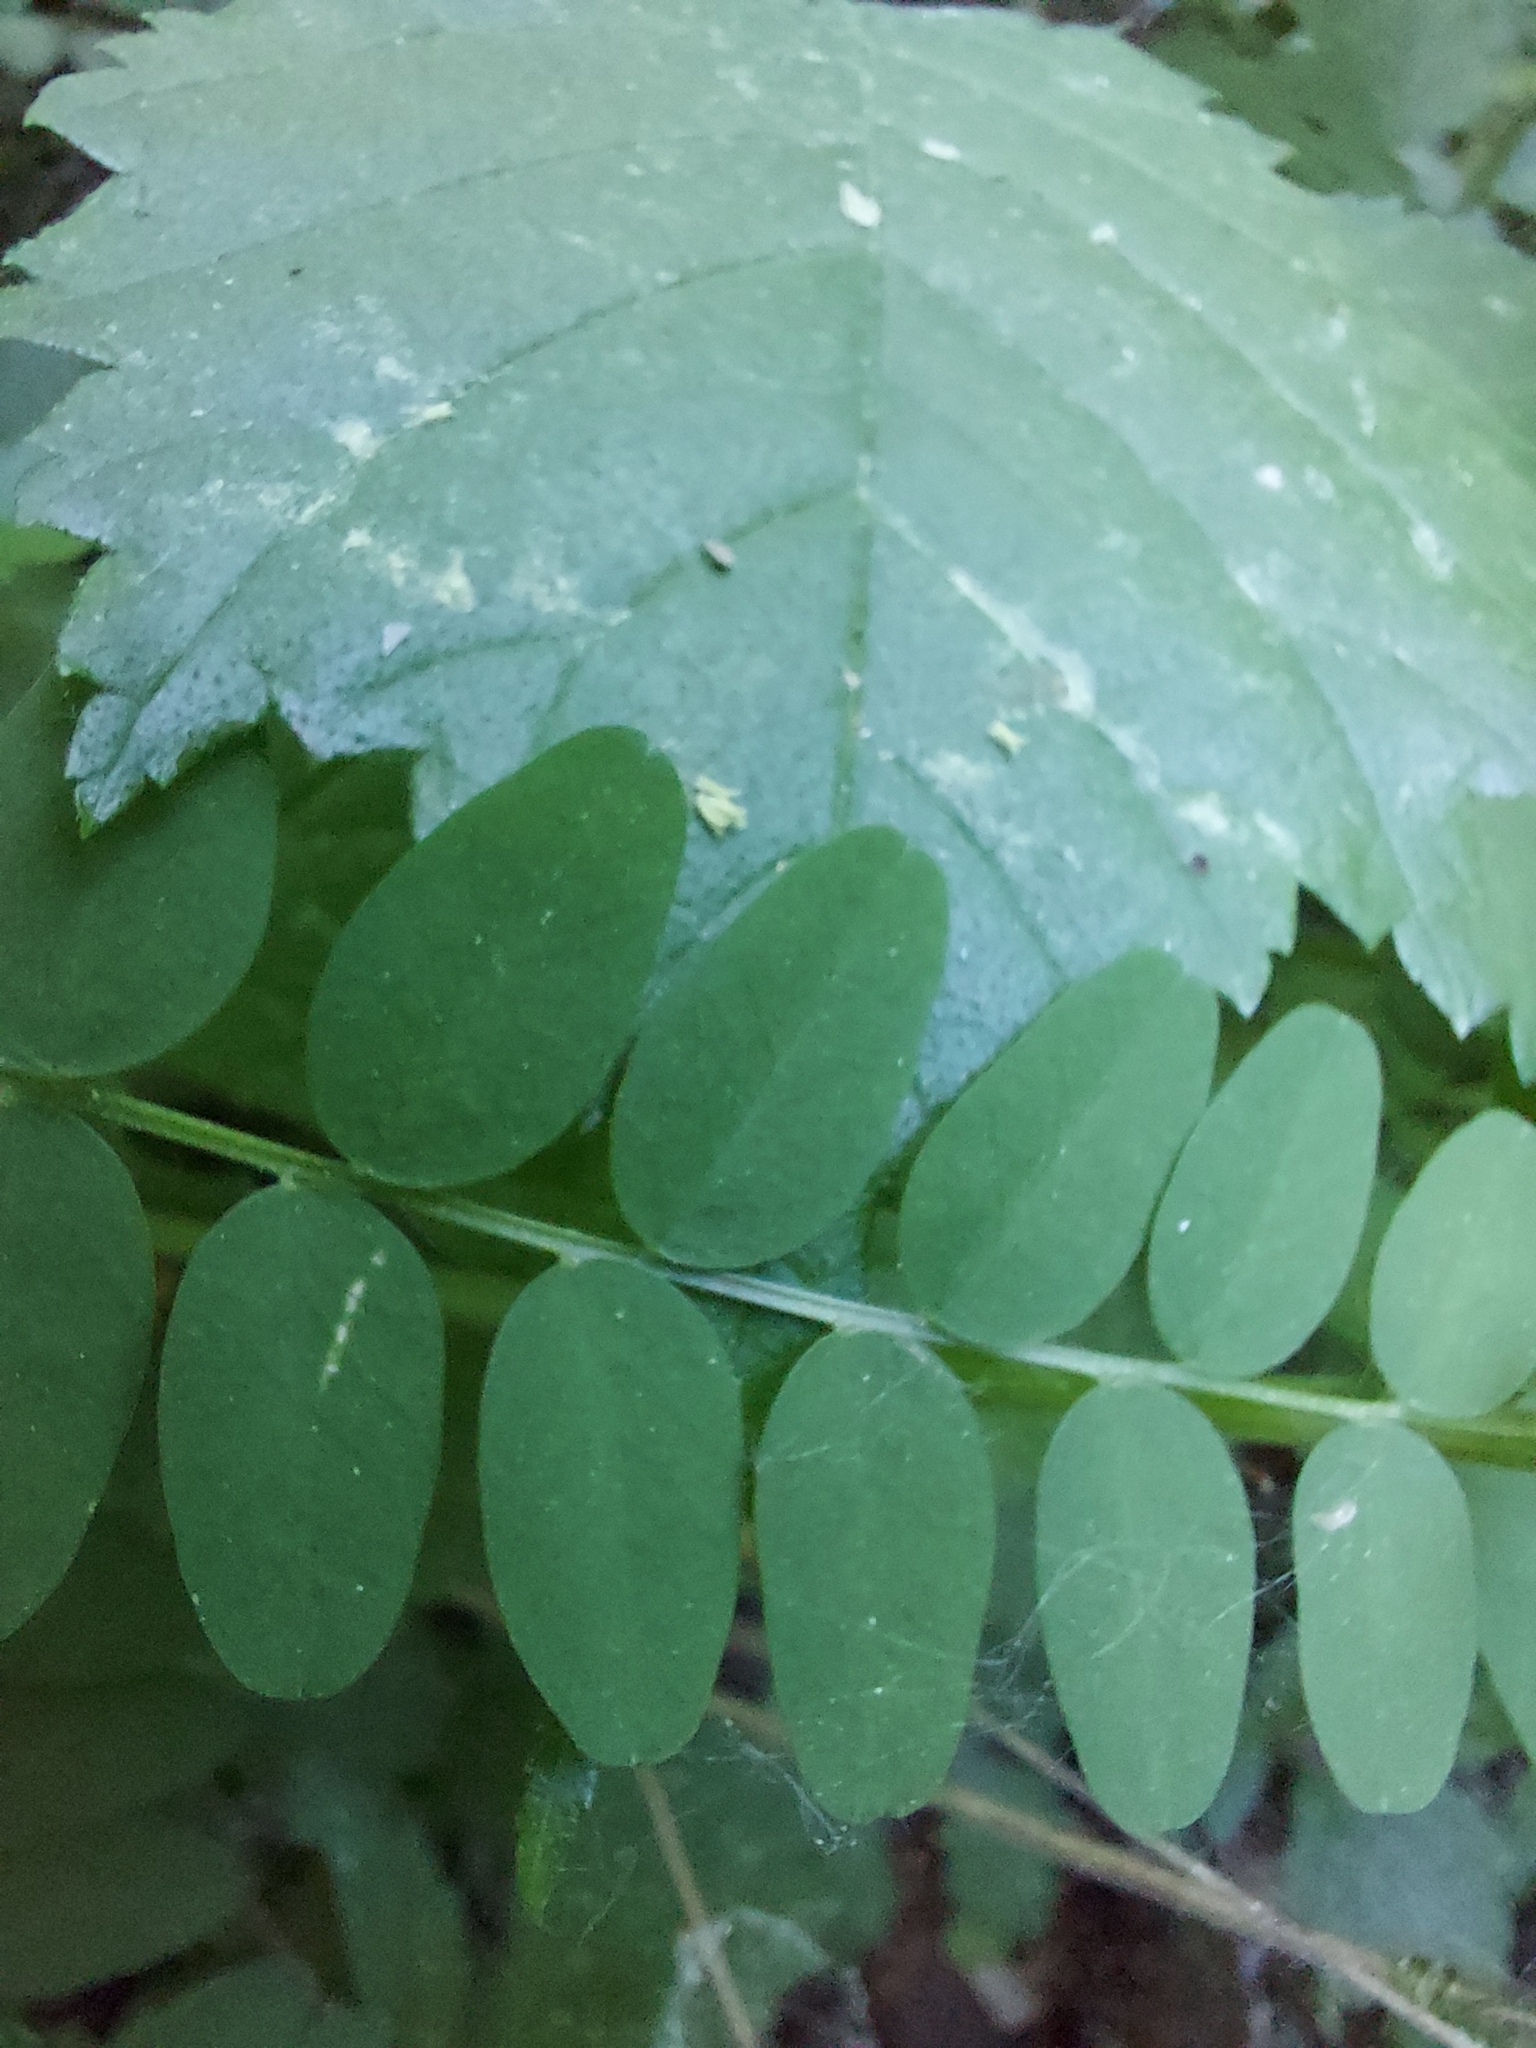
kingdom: Plantae
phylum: Tracheophyta
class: Magnoliopsida
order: Fabales
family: Fabaceae
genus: Vicia
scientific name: Vicia sylvatica
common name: Wood vetch
